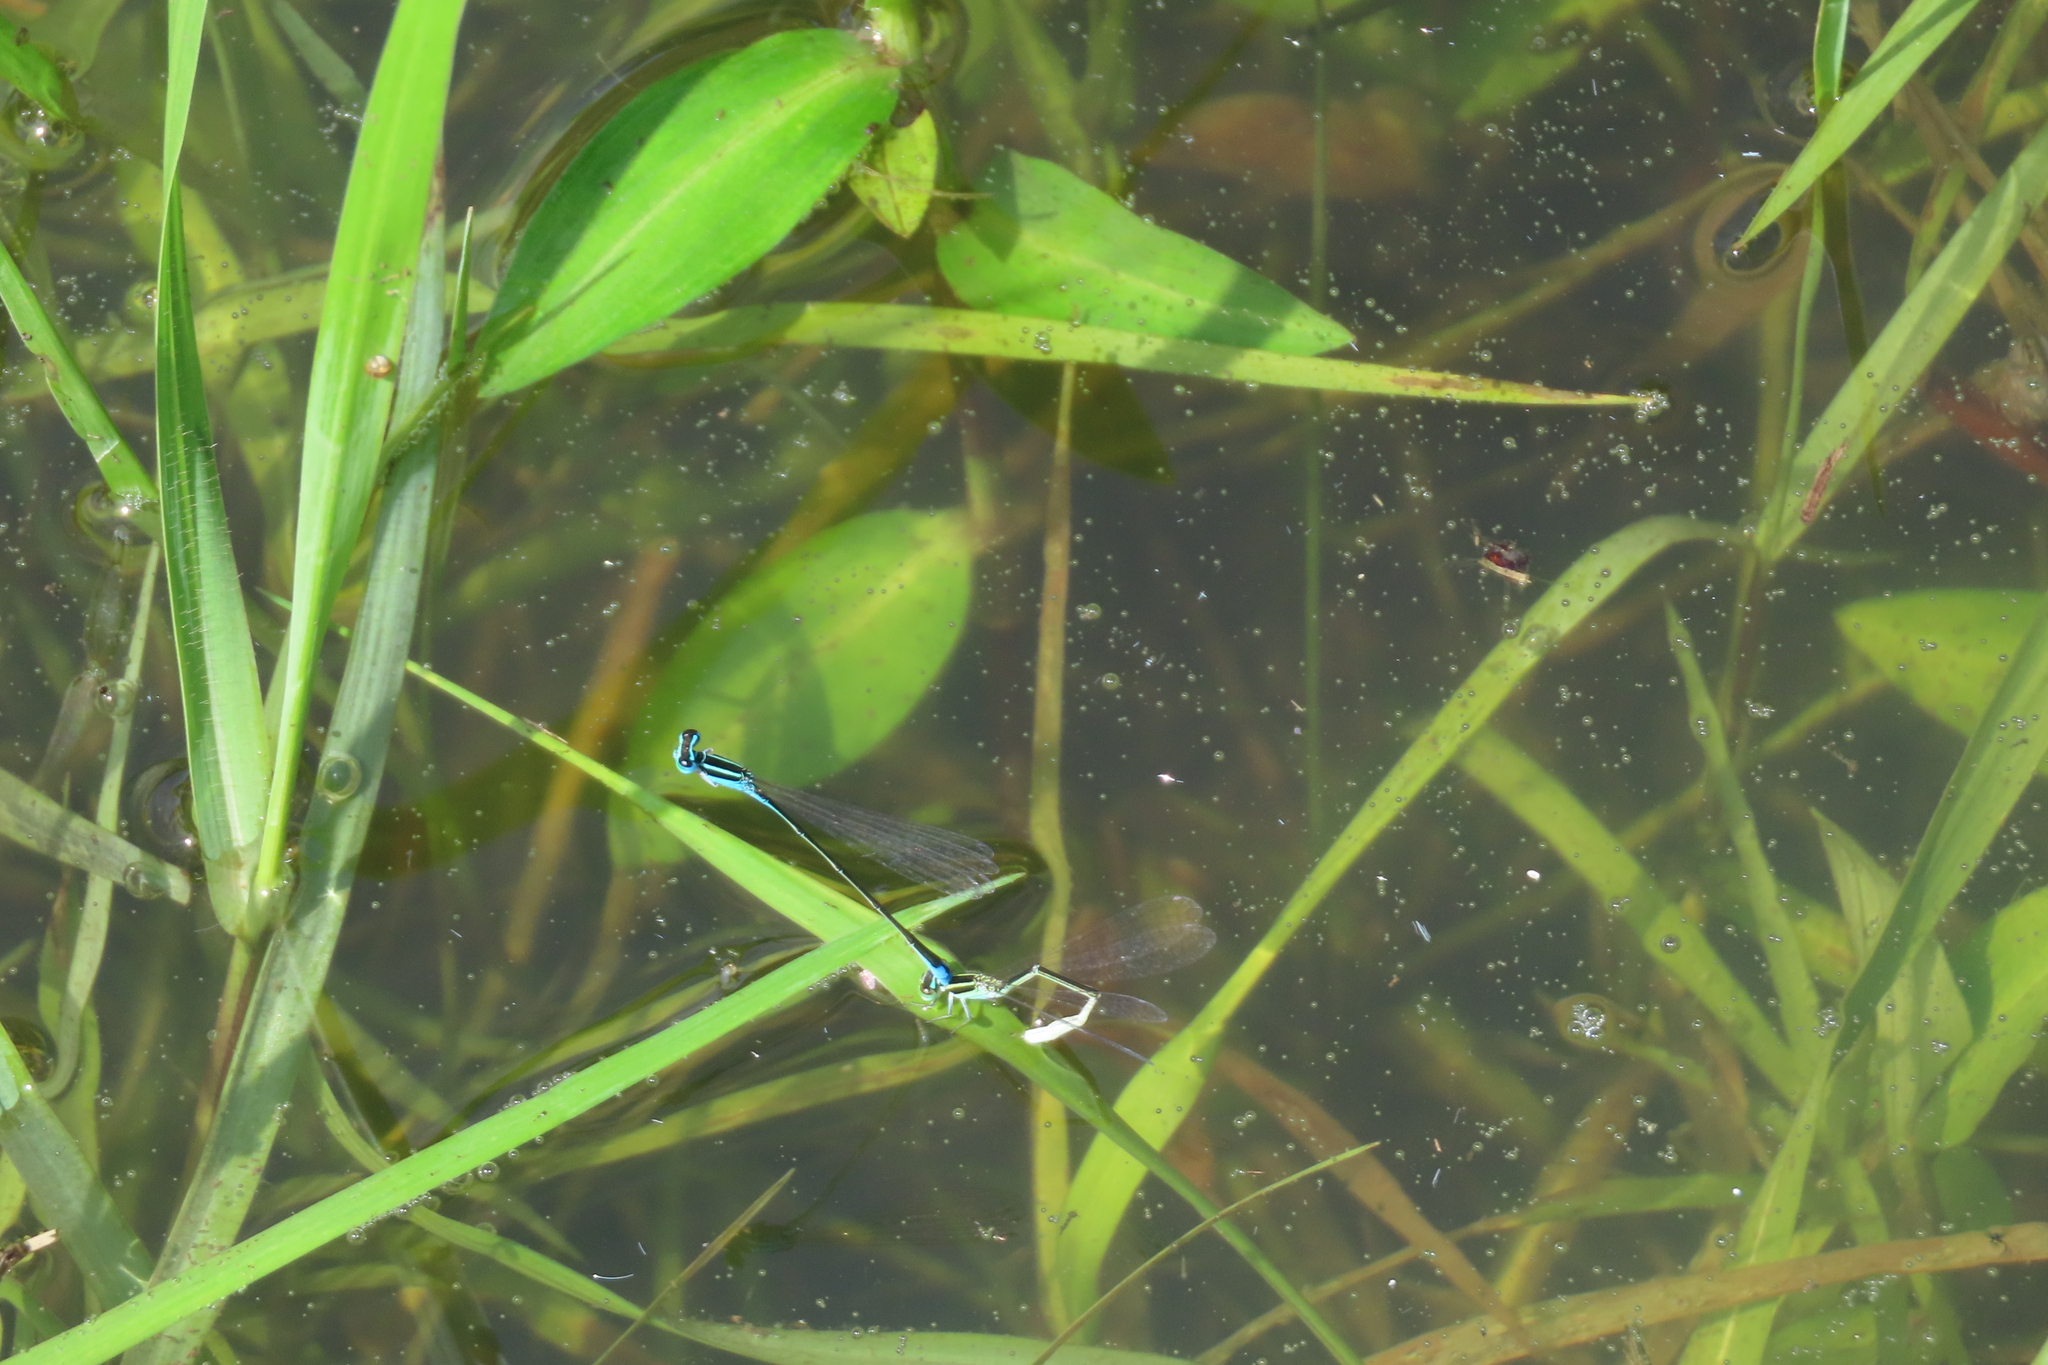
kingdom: Animalia
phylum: Arthropoda
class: Insecta
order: Odonata
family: Coenagrionidae
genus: Aciagrion
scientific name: Aciagrion occidentale
